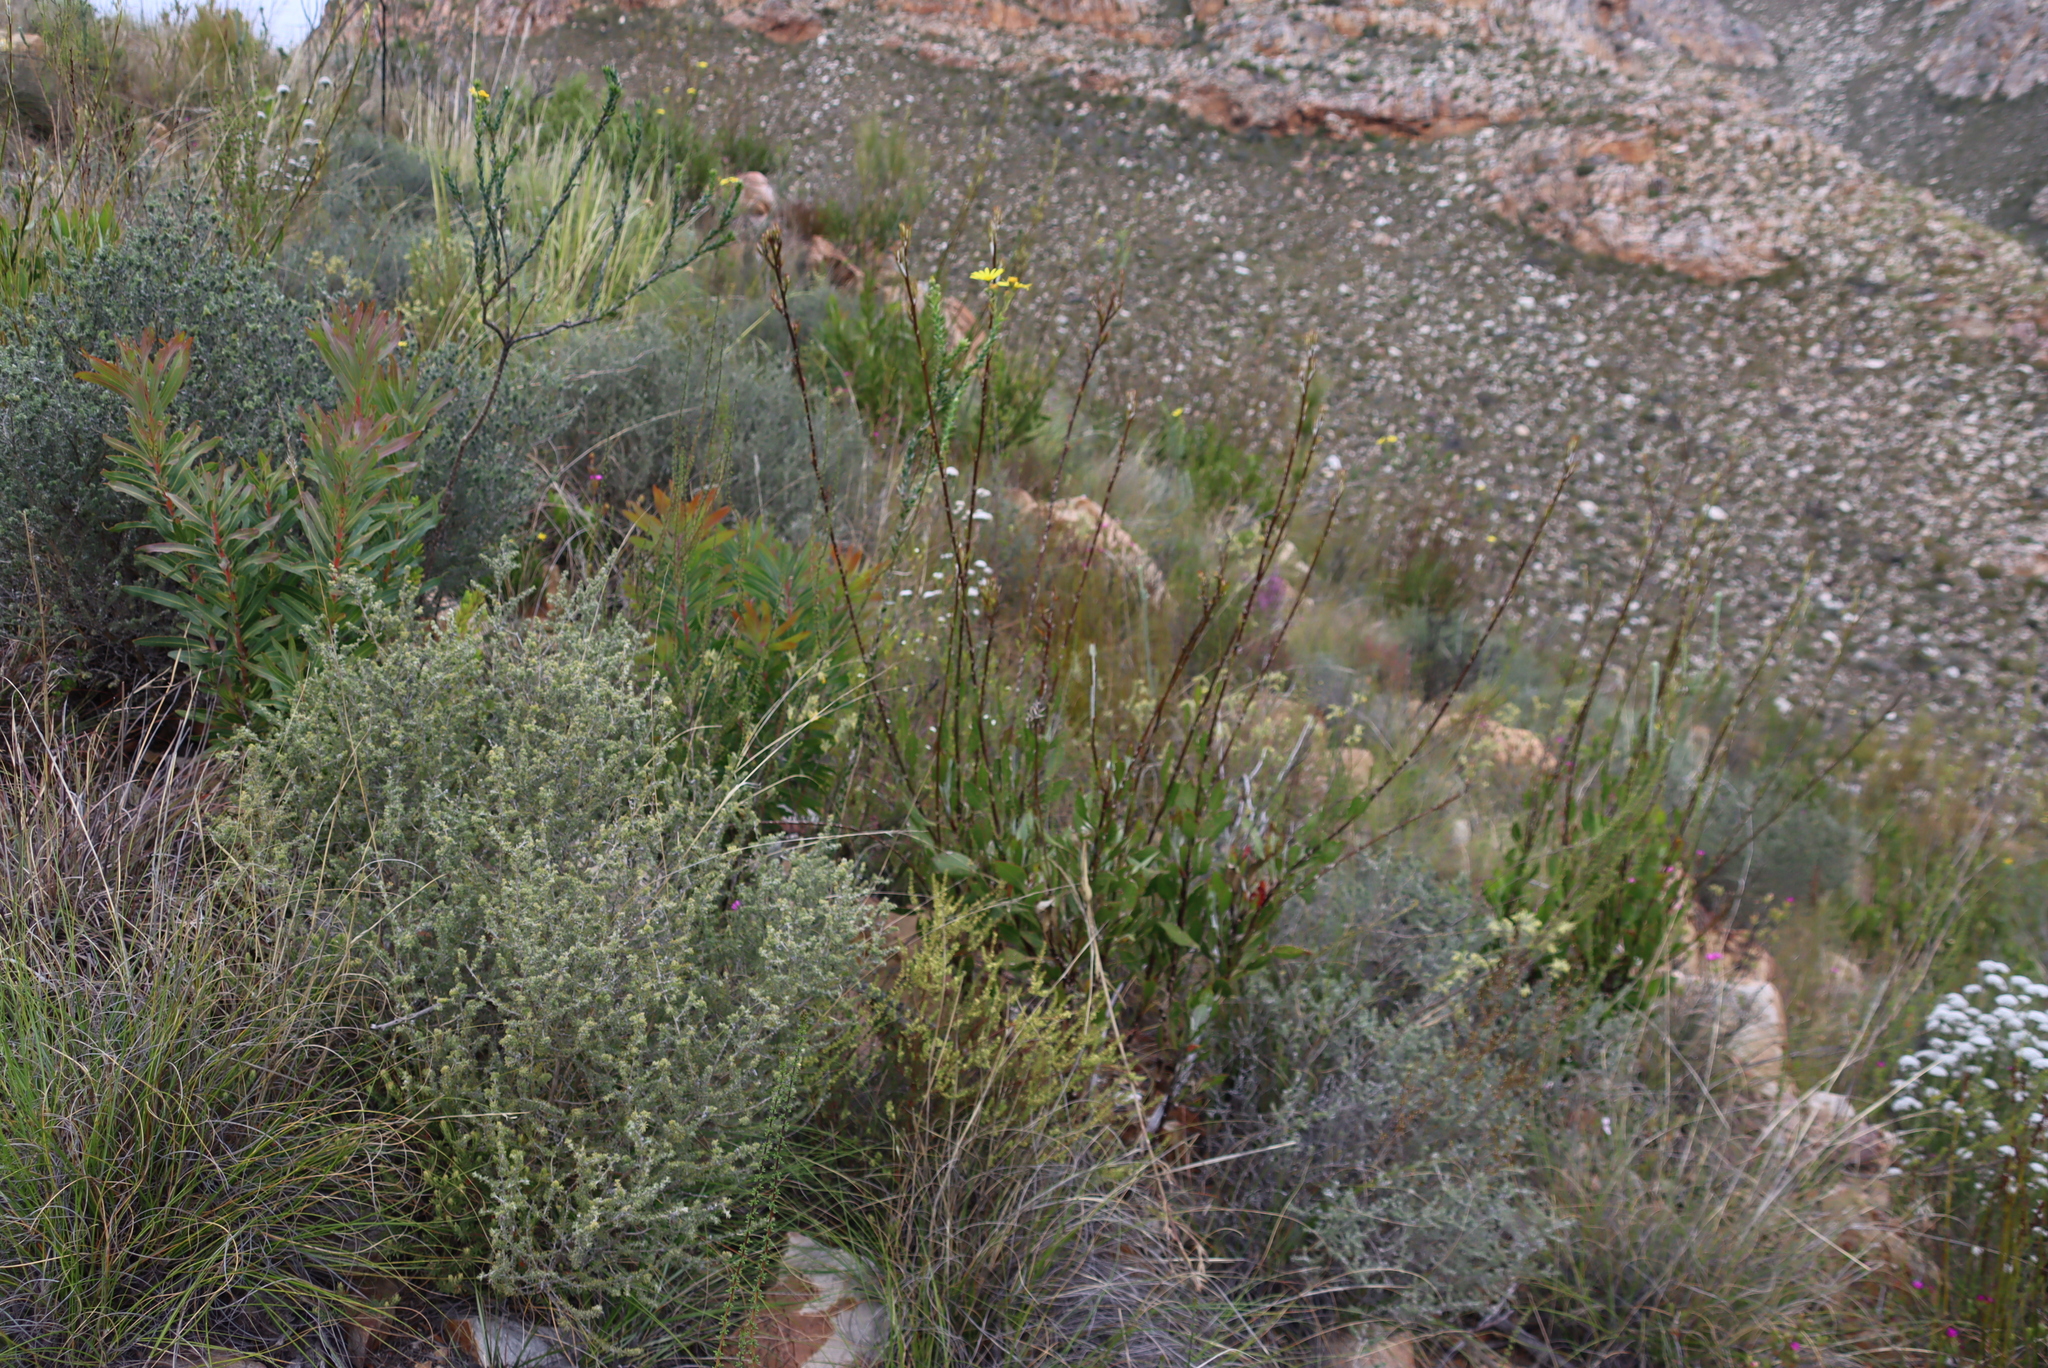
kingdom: Plantae
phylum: Tracheophyta
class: Magnoliopsida
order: Asterales
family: Asteraceae
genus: Osteospermum
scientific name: Osteospermum junceum
